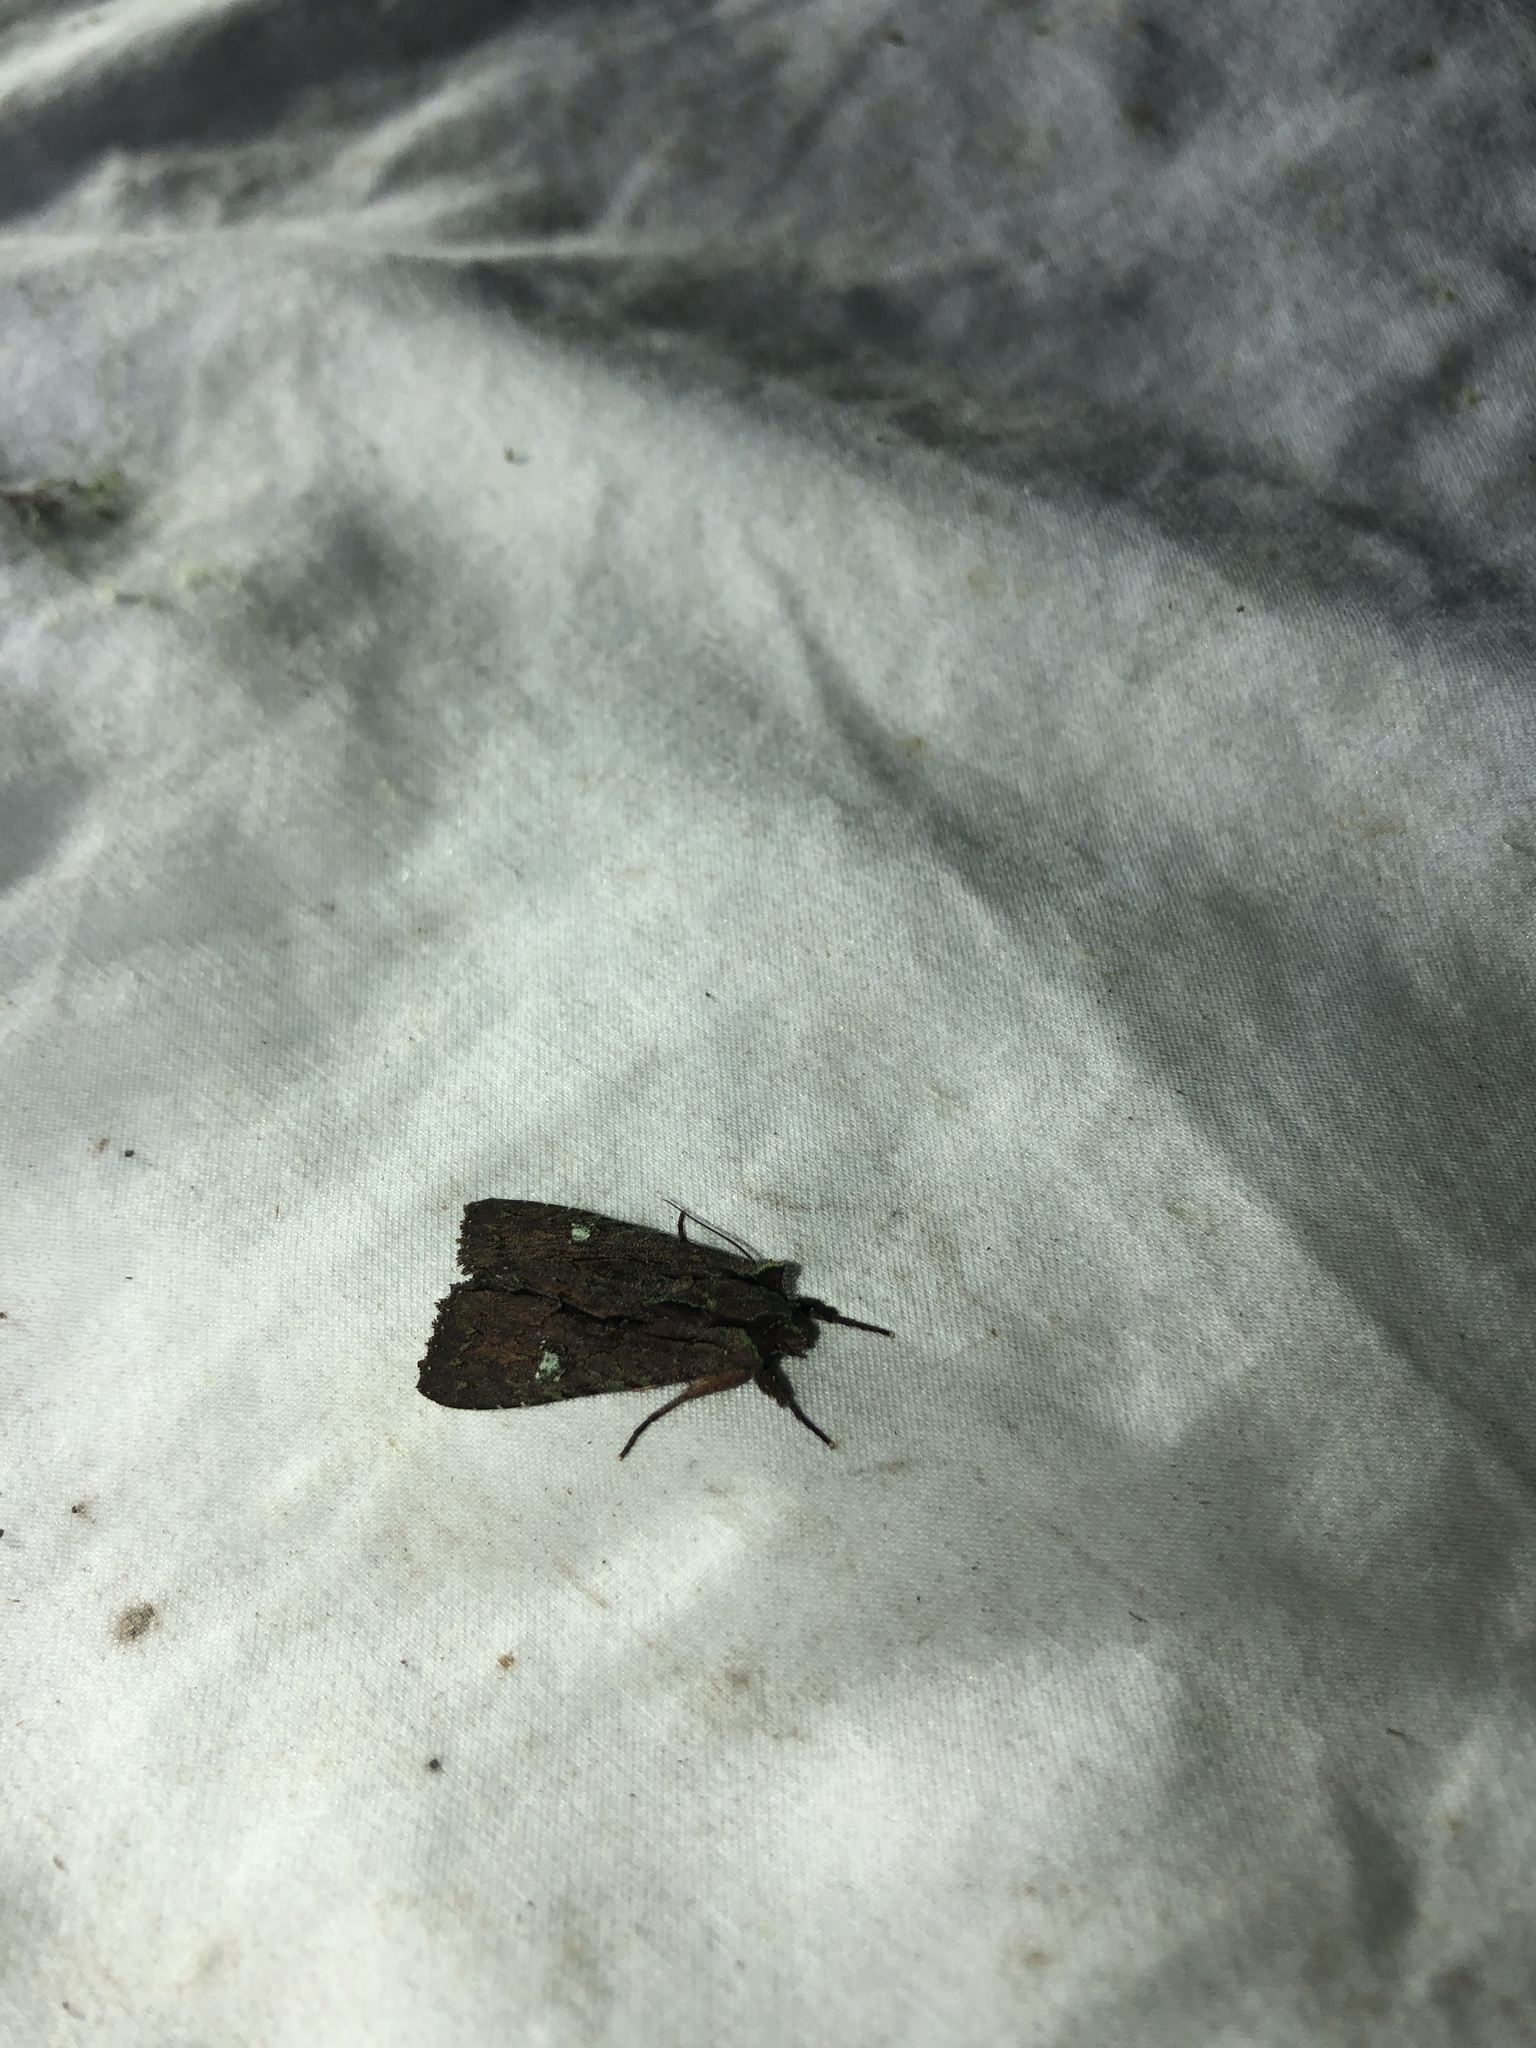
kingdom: Animalia
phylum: Arthropoda
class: Insecta
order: Lepidoptera
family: Noctuidae
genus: Meterana
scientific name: Meterana diatmeta
